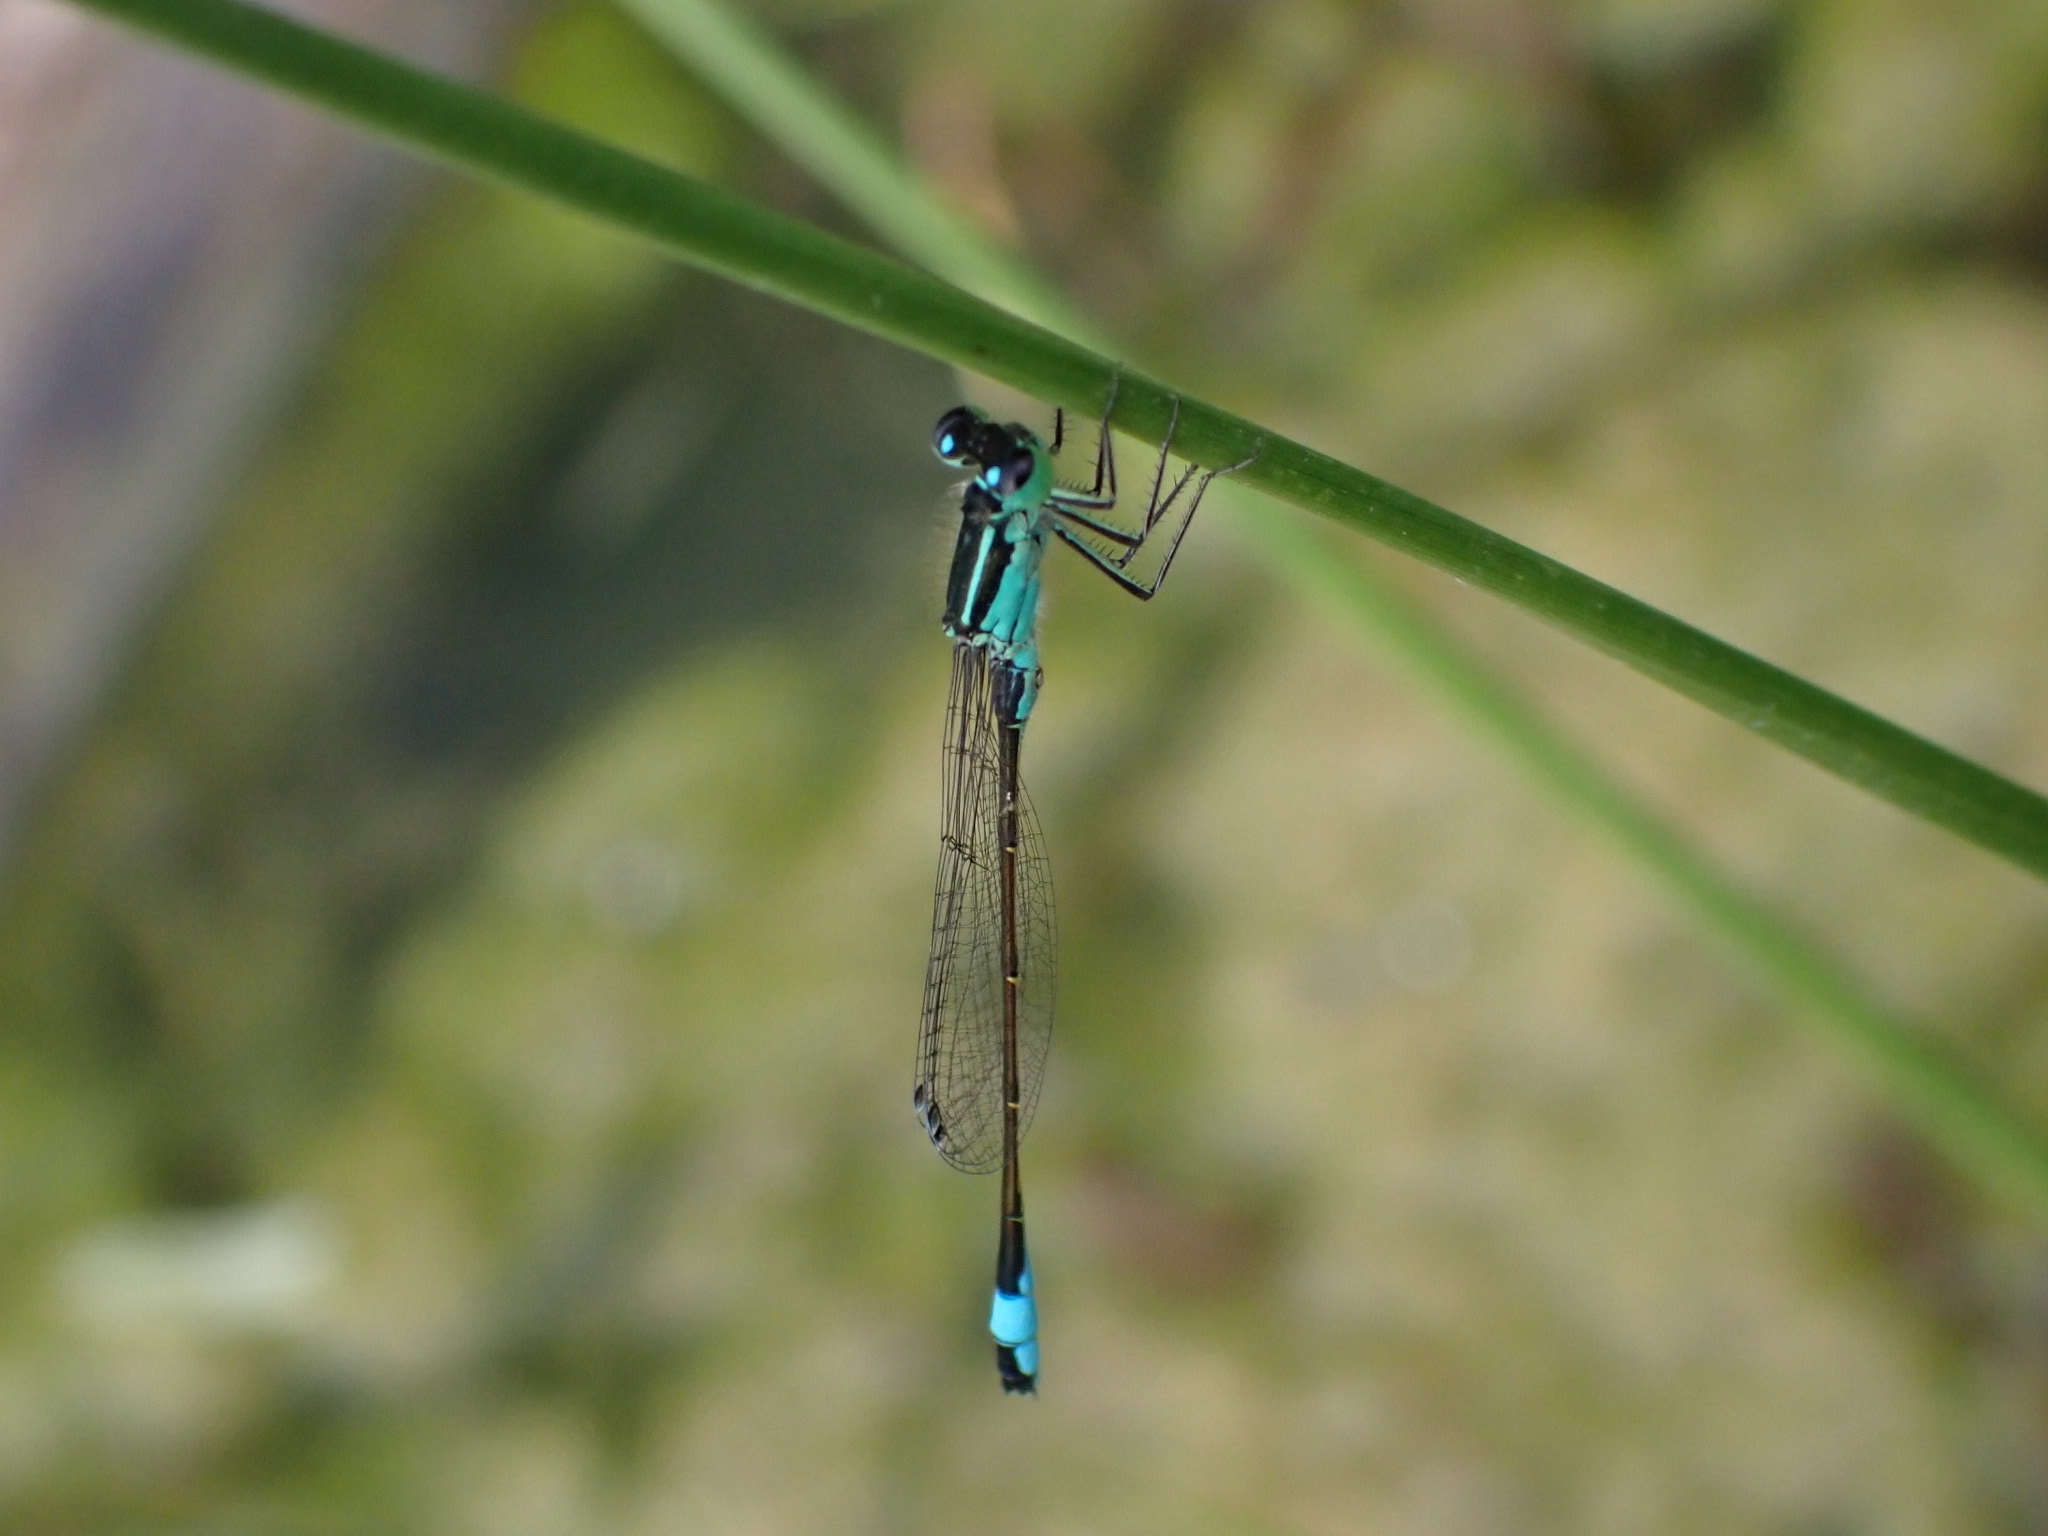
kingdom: Animalia
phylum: Arthropoda
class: Insecta
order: Odonata
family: Coenagrionidae
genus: Ischnura
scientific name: Ischnura elegans
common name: Blue-tailed damselfly
